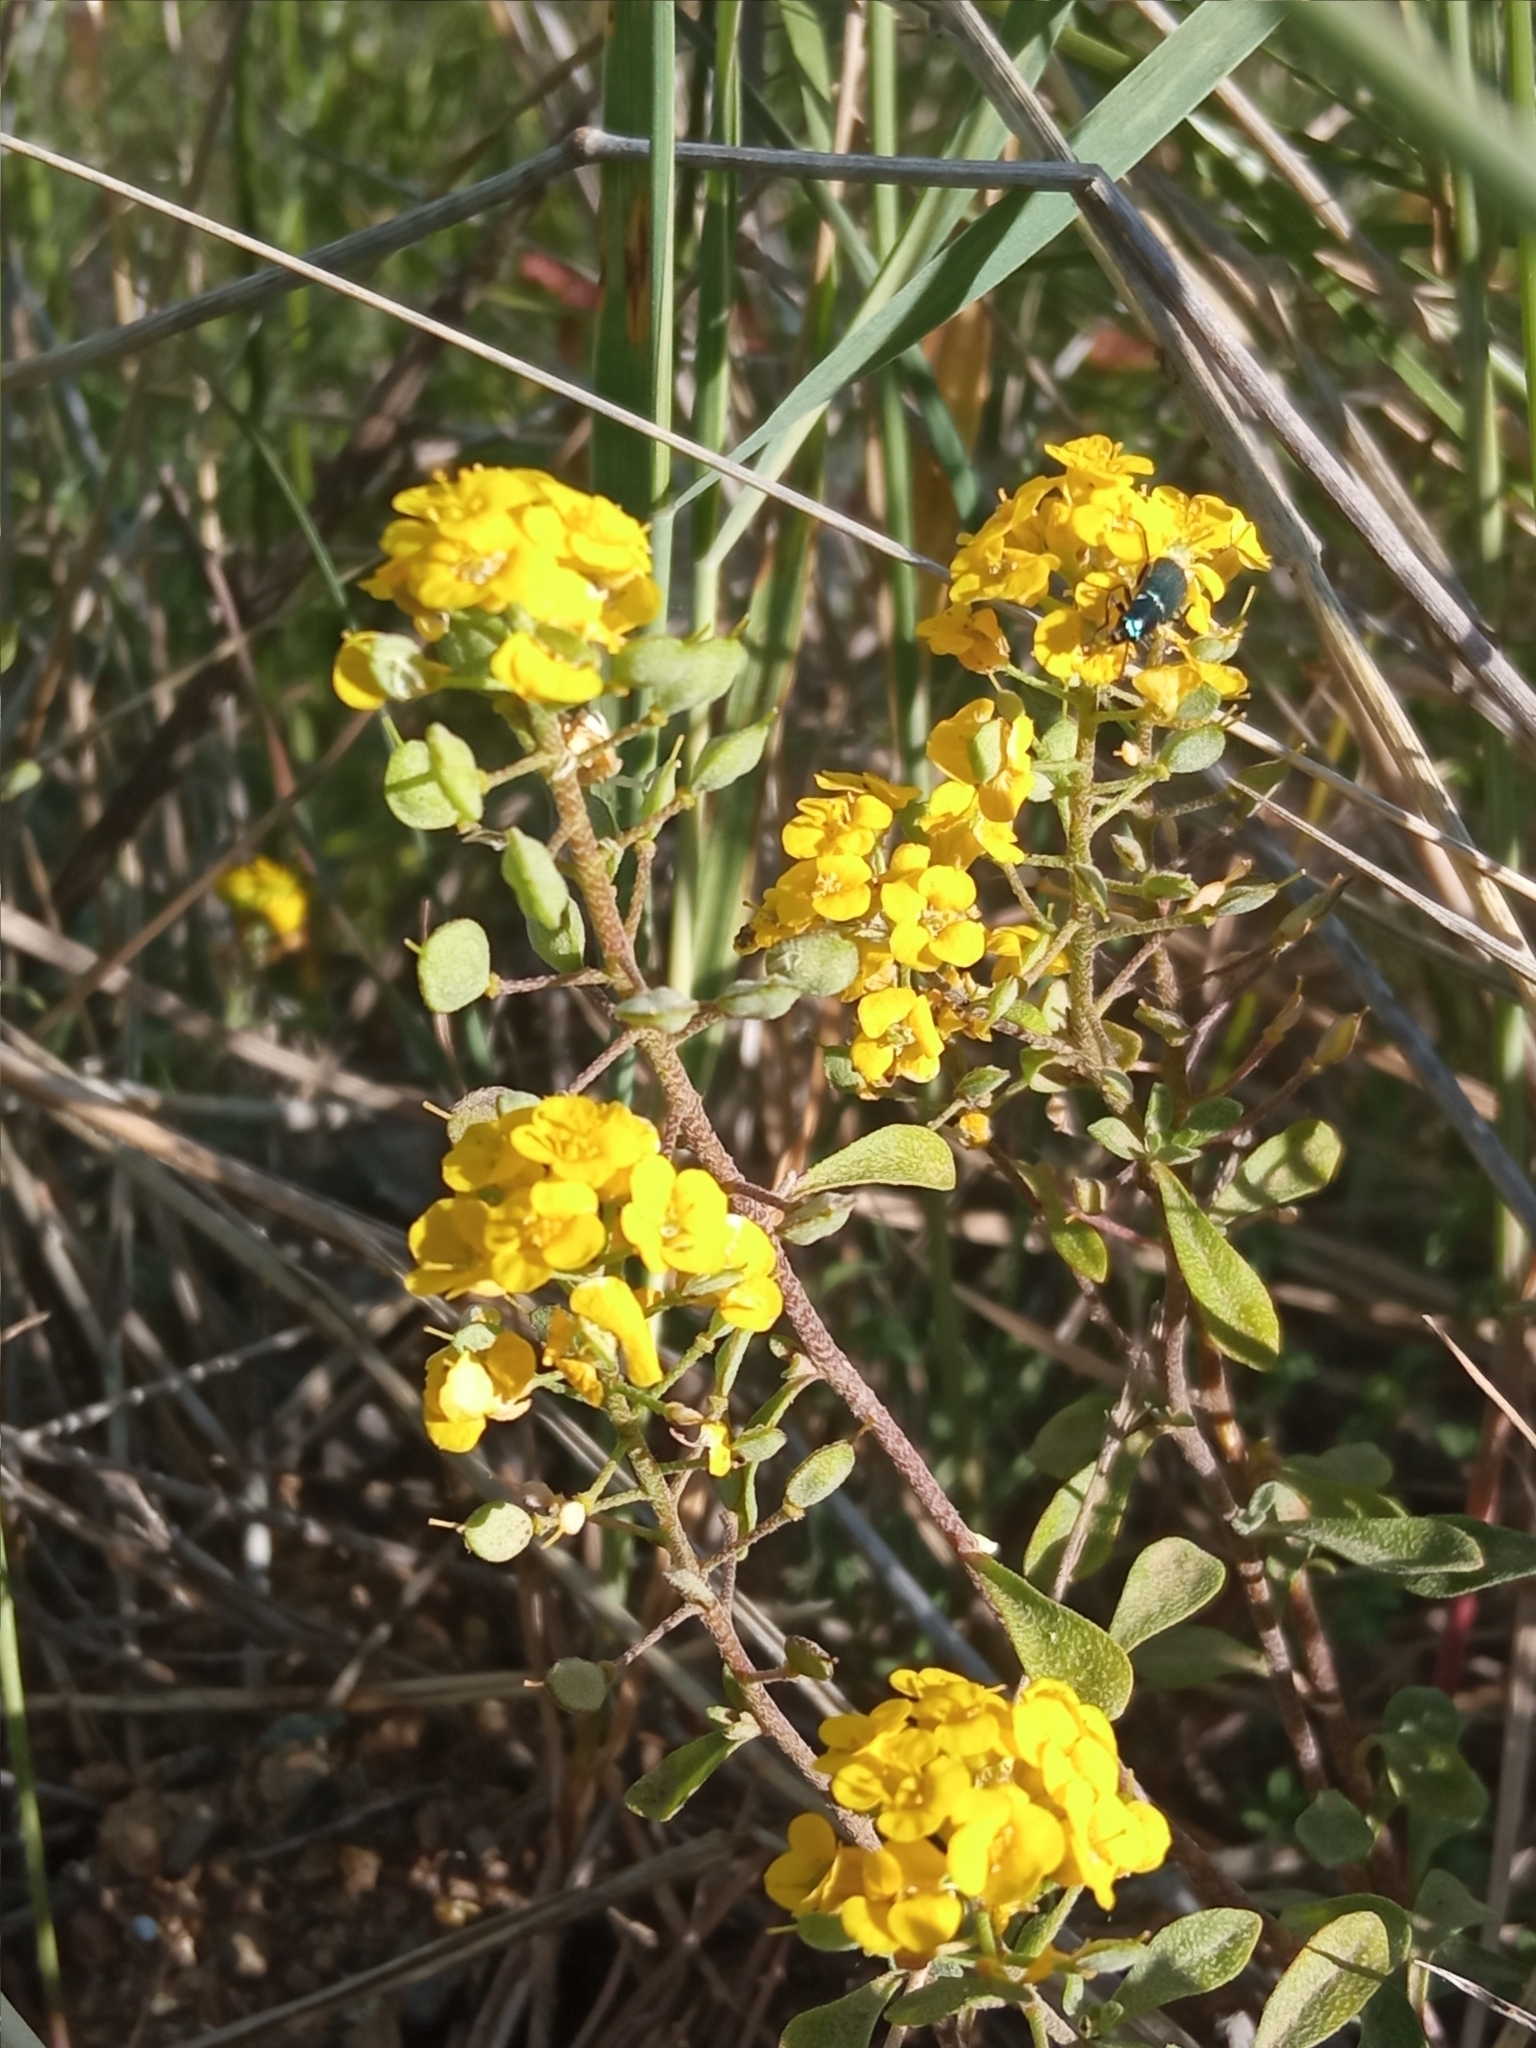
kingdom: Plantae
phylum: Tracheophyta
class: Magnoliopsida
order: Brassicales
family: Brassicaceae
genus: Odontarrhena
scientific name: Odontarrhena obovata
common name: American alyssum
